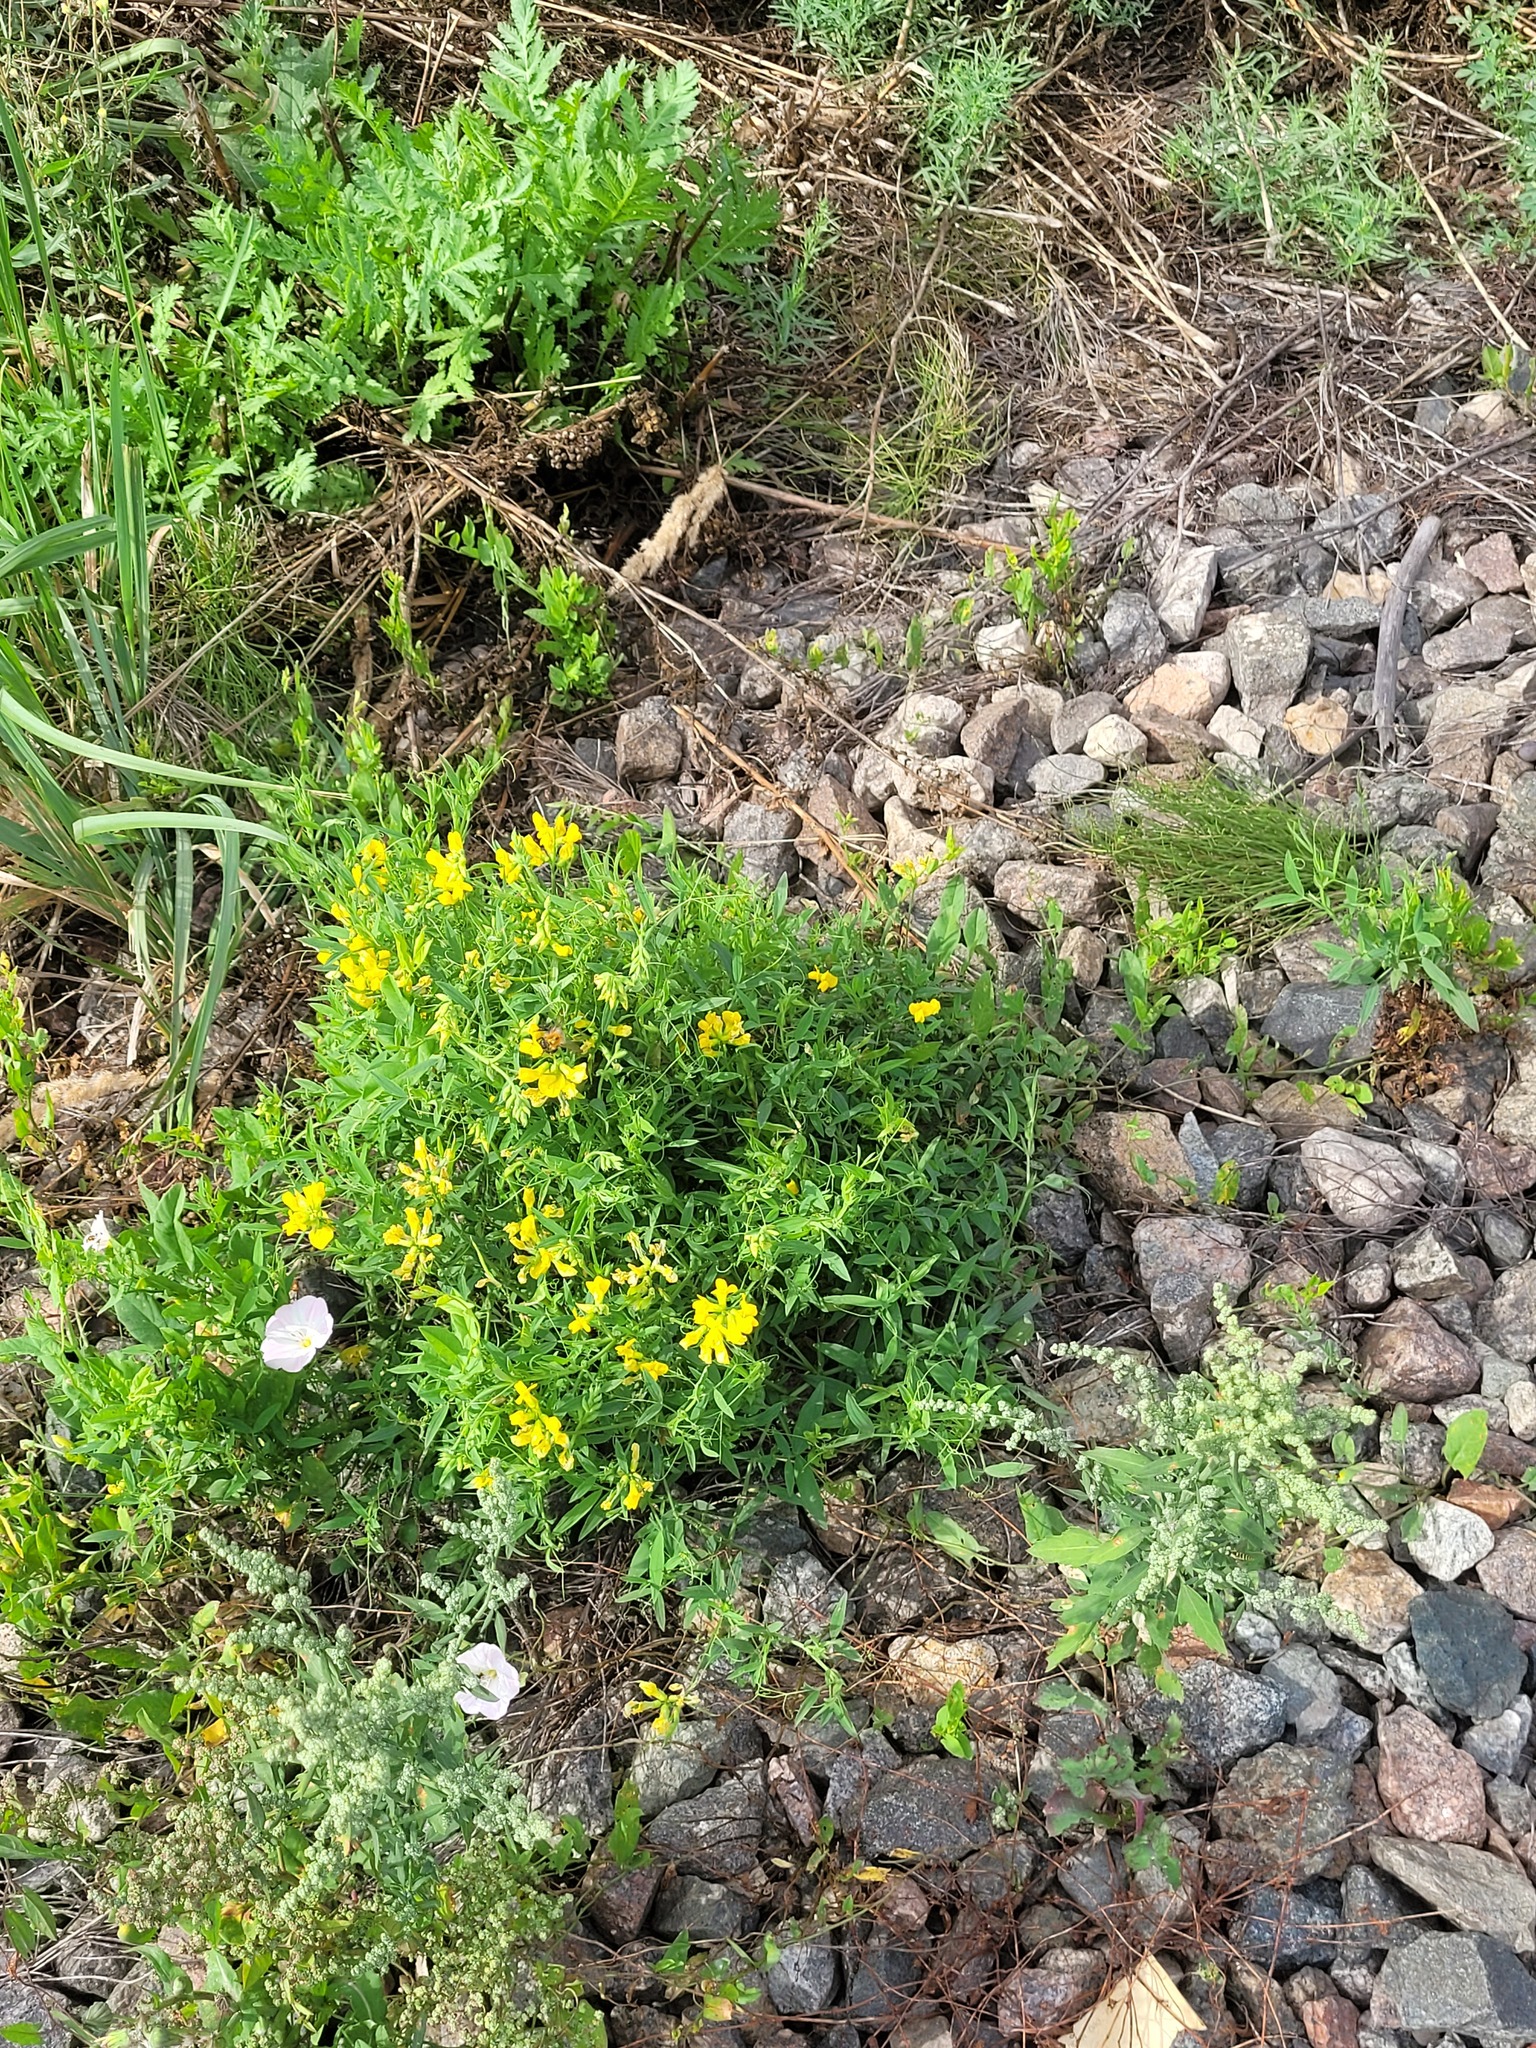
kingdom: Plantae
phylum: Tracheophyta
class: Magnoliopsida
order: Fabales
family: Fabaceae
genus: Lathyrus
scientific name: Lathyrus pratensis
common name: Meadow vetchling
